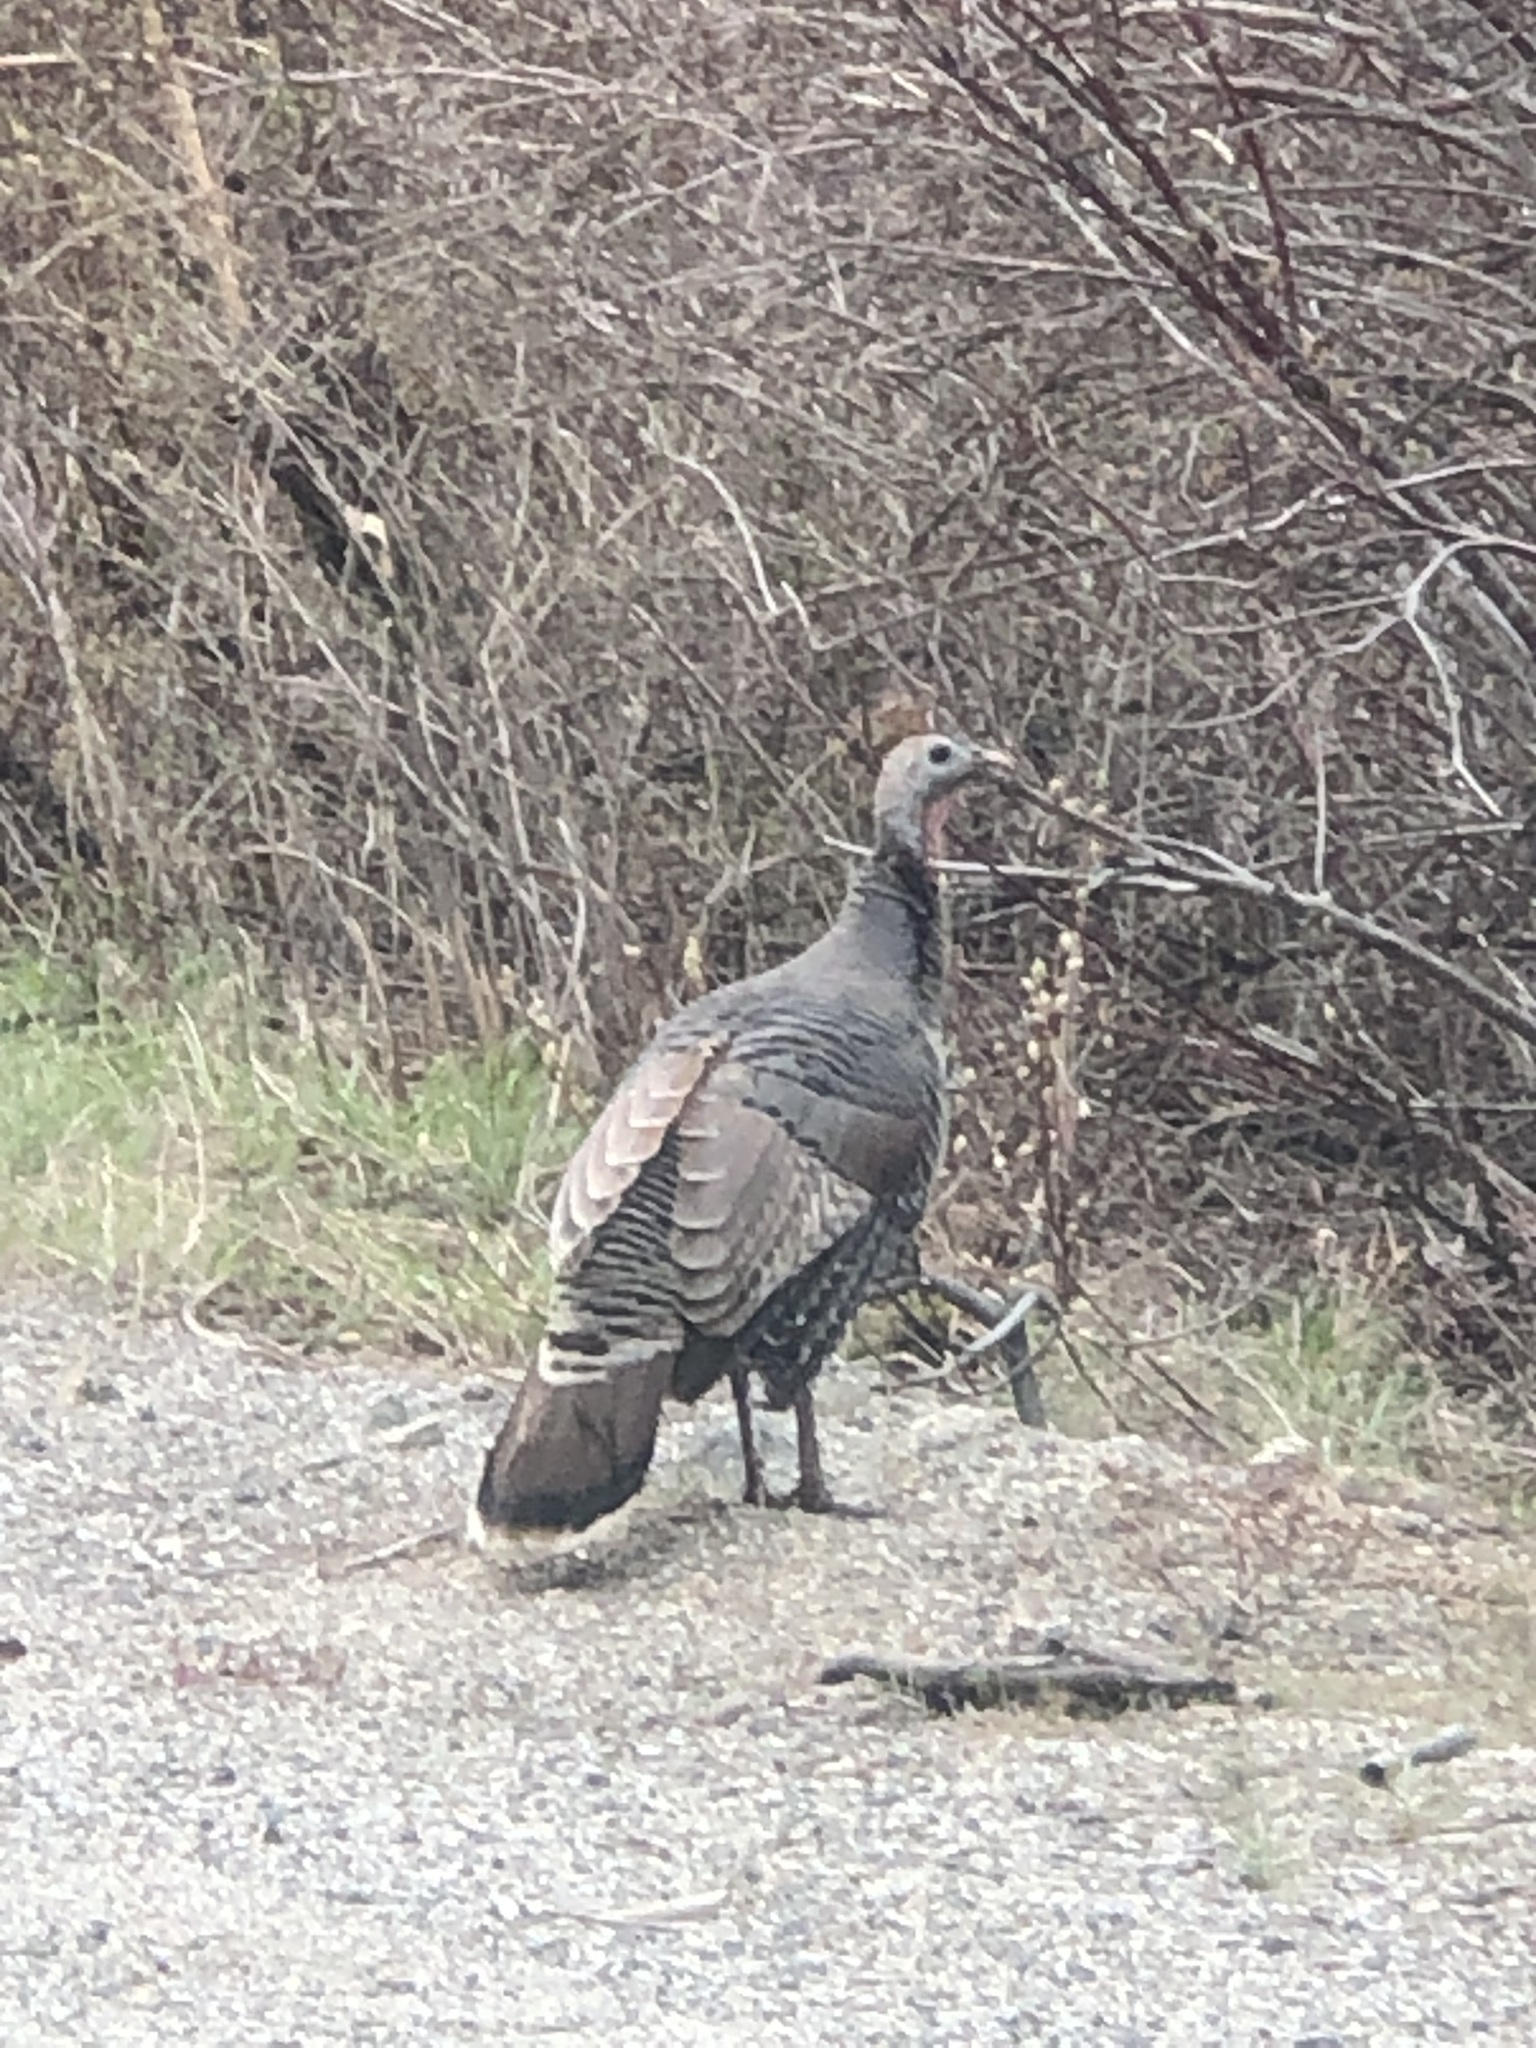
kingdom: Animalia
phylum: Chordata
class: Aves
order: Galliformes
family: Phasianidae
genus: Meleagris
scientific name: Meleagris gallopavo
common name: Wild turkey
